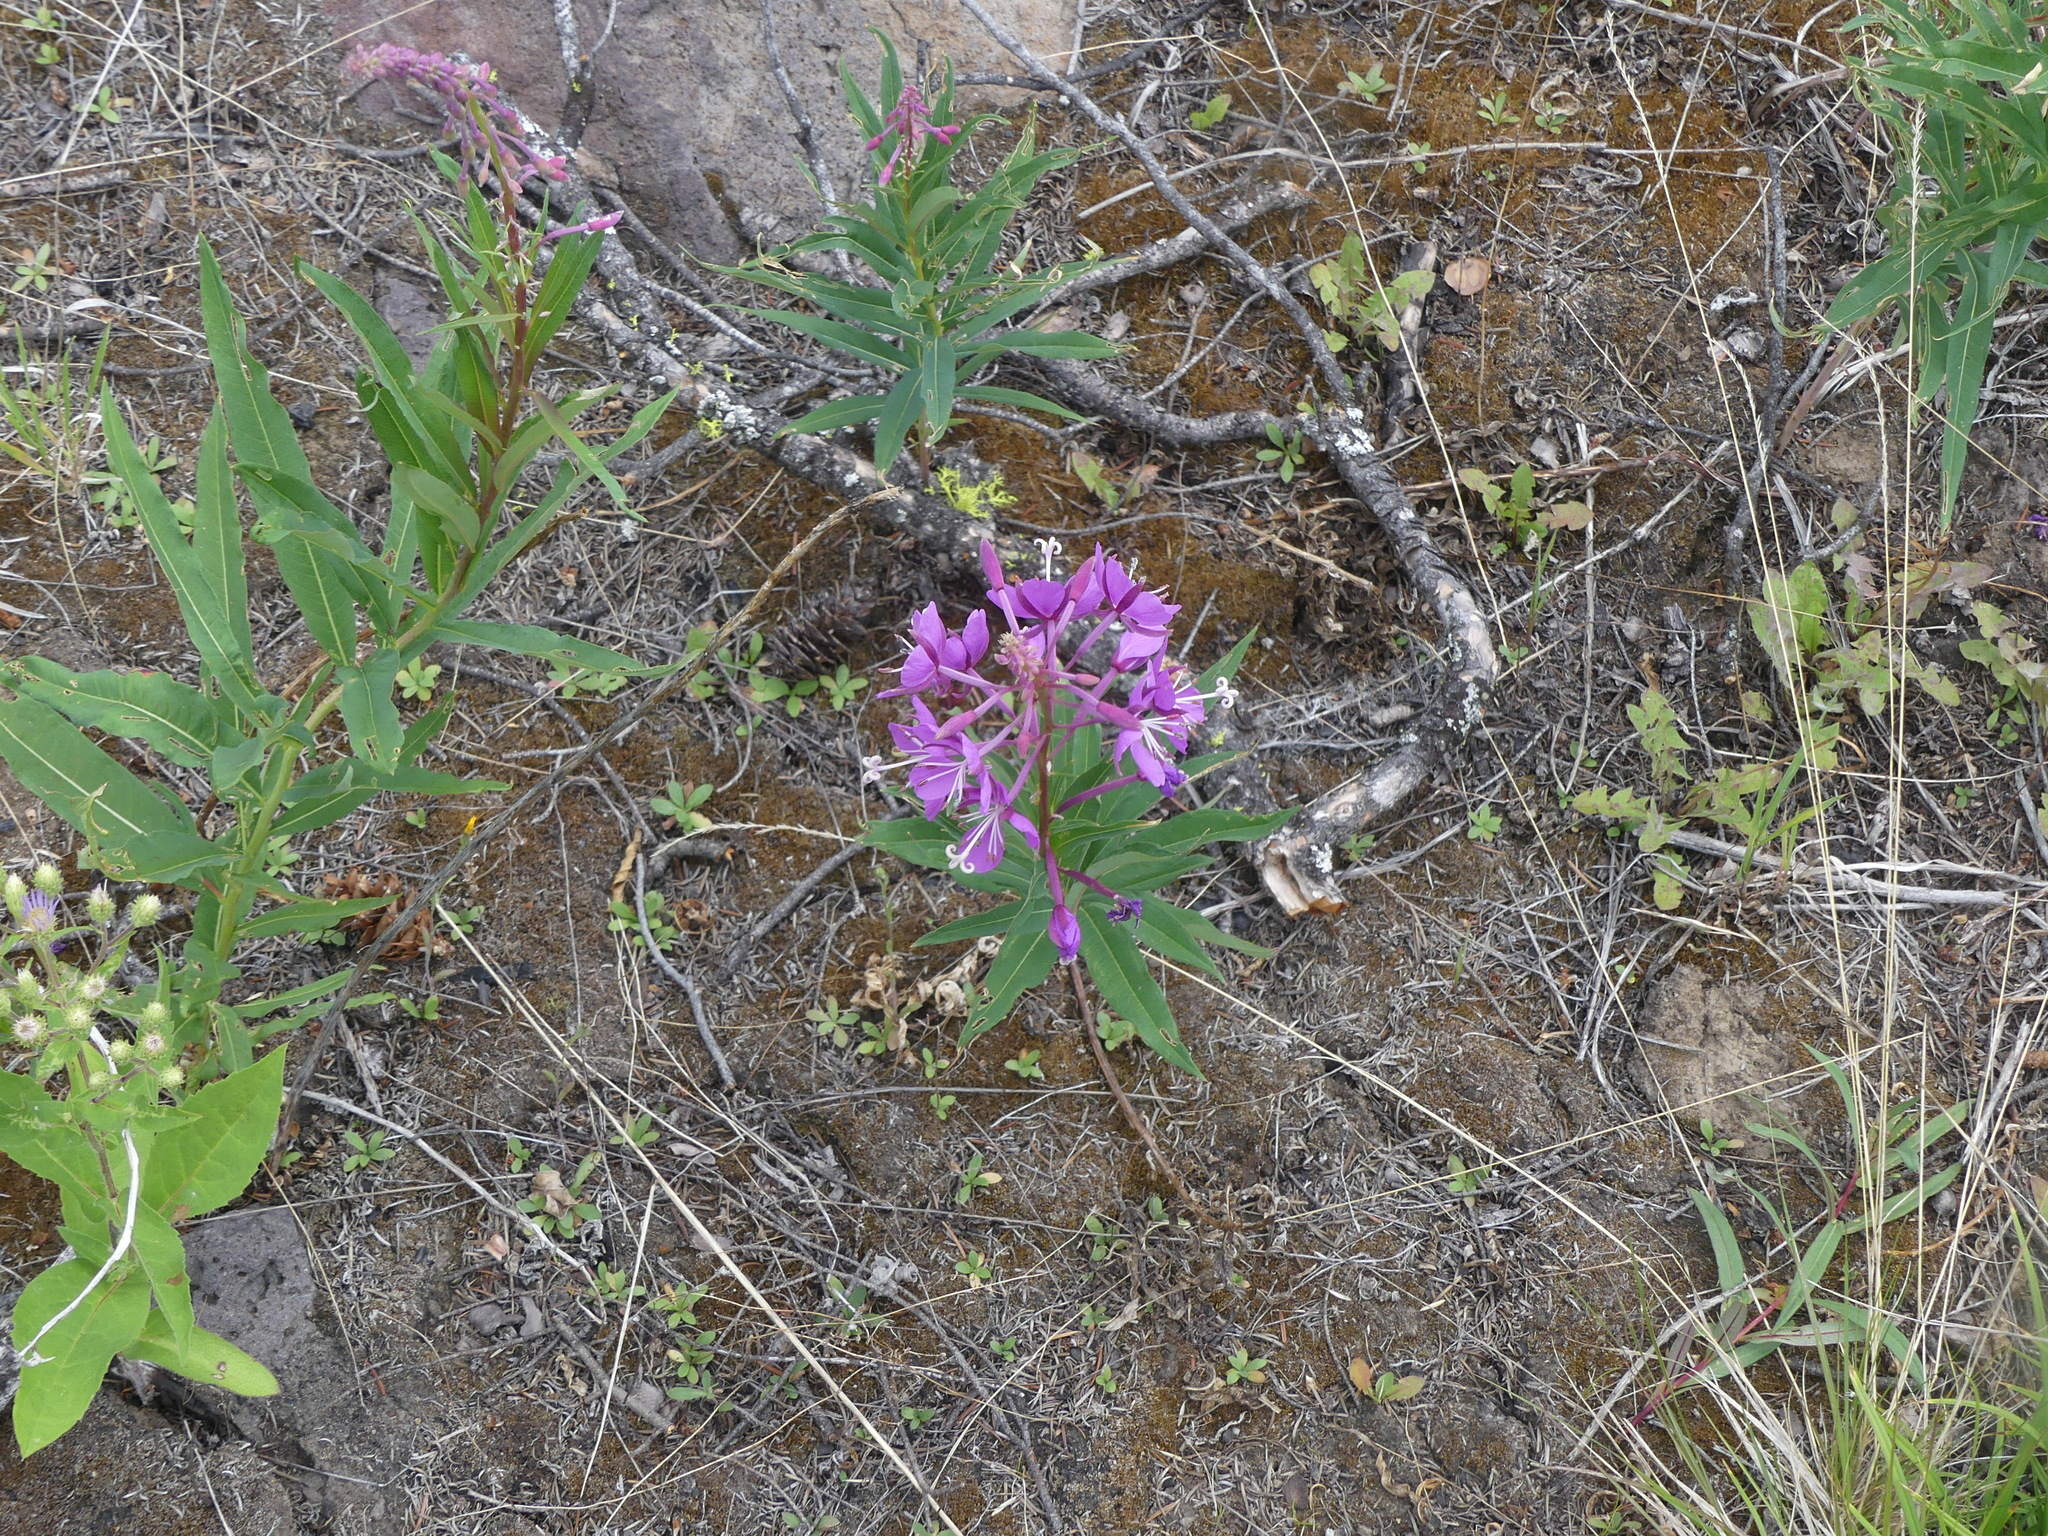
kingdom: Plantae
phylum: Tracheophyta
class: Magnoliopsida
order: Myrtales
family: Onagraceae
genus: Chamaenerion
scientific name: Chamaenerion angustifolium
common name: Fireweed
